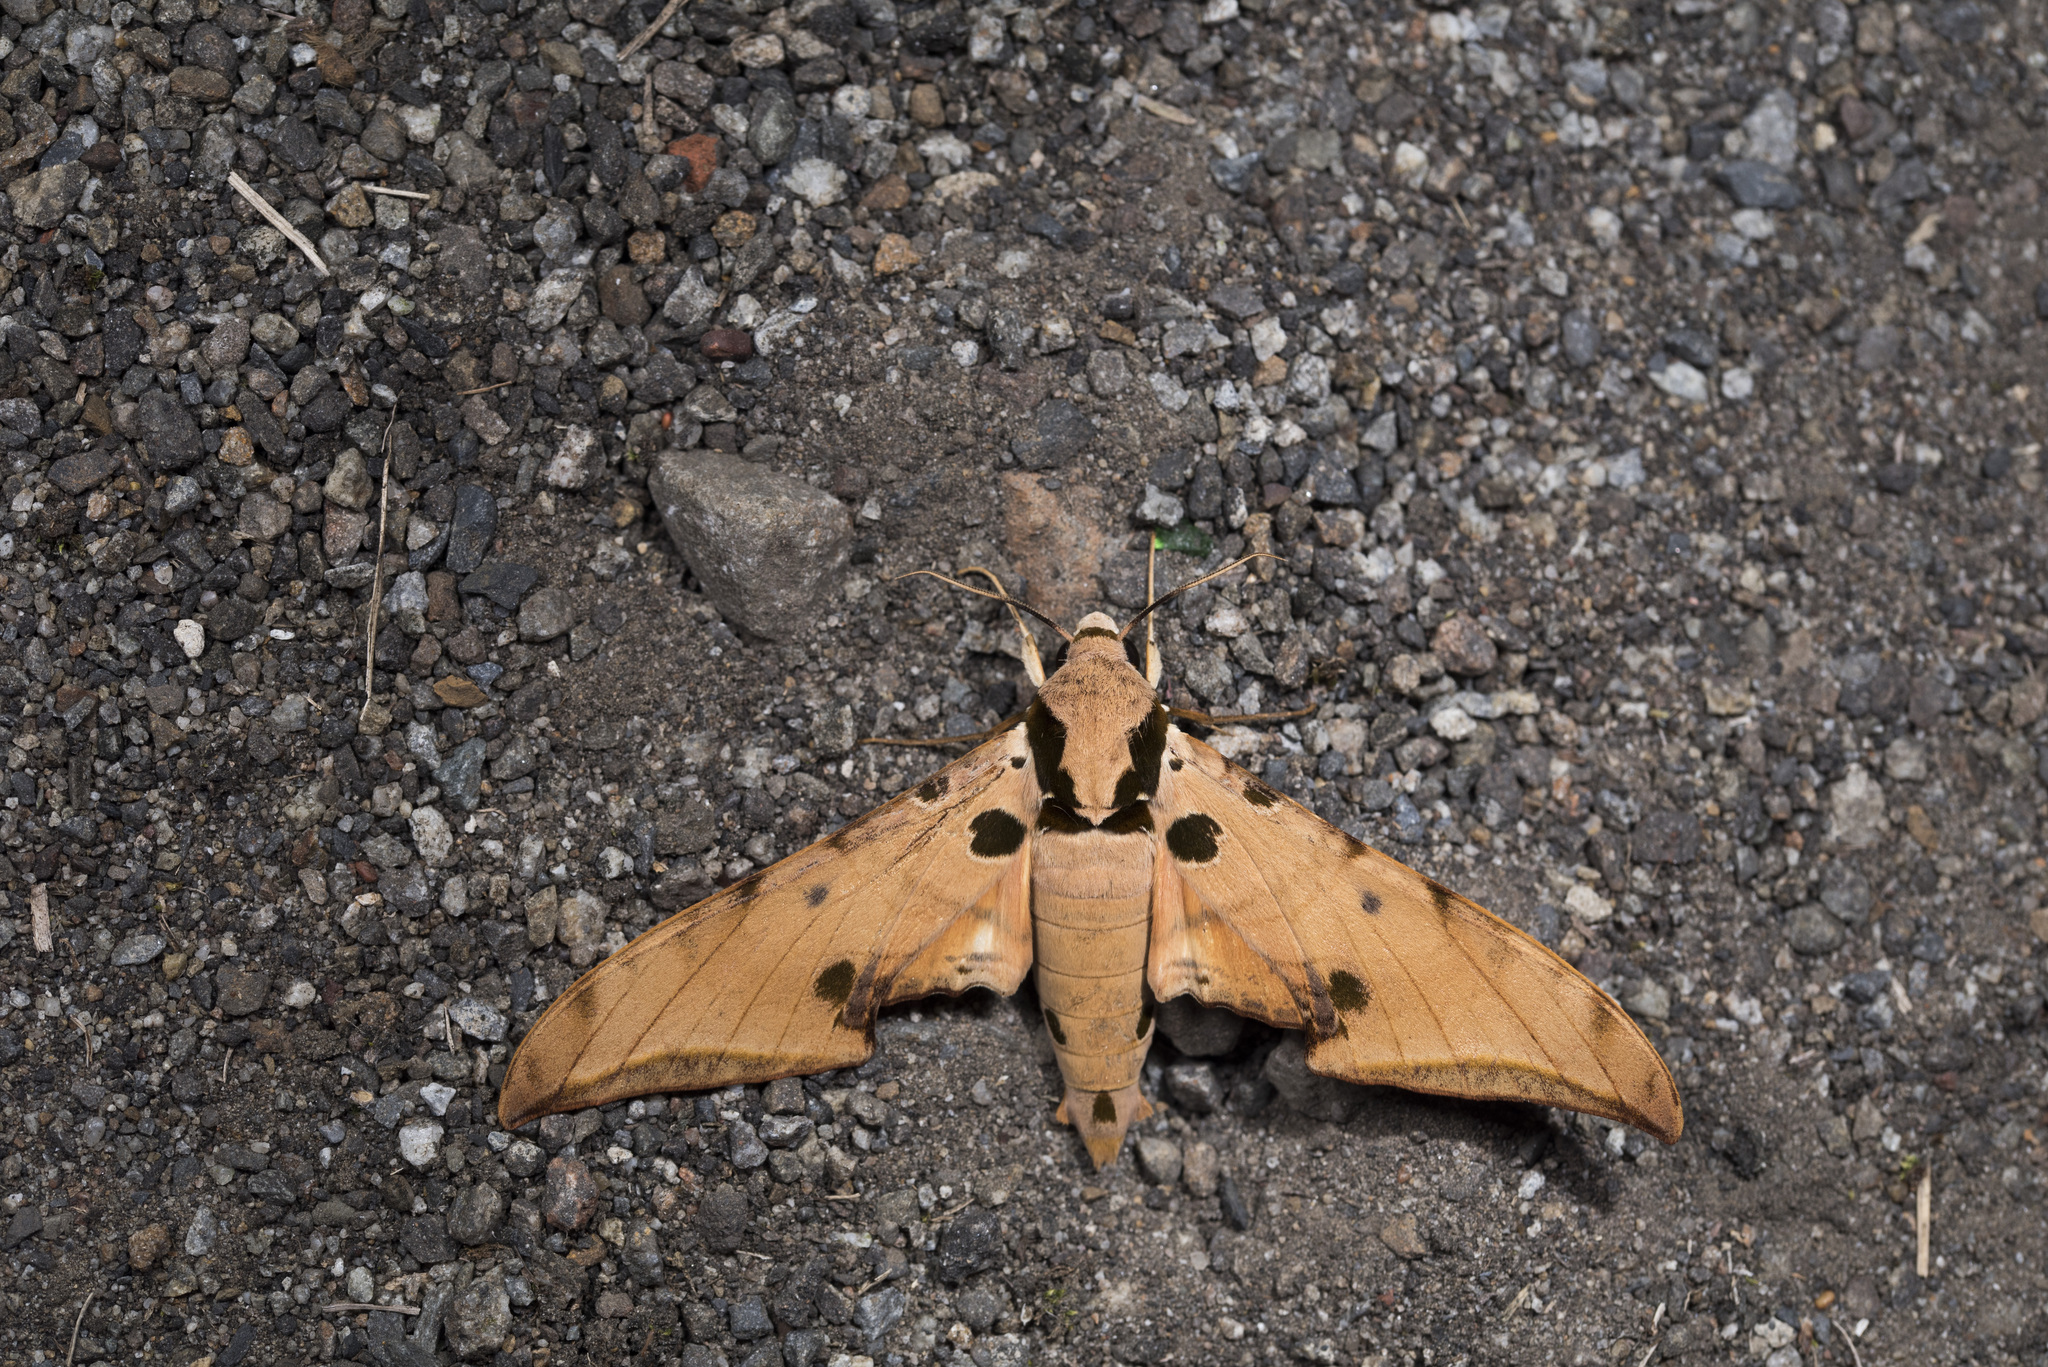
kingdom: Animalia
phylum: Arthropoda
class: Insecta
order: Lepidoptera
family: Sphingidae
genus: Ambulyx
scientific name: Ambulyx ochracea
